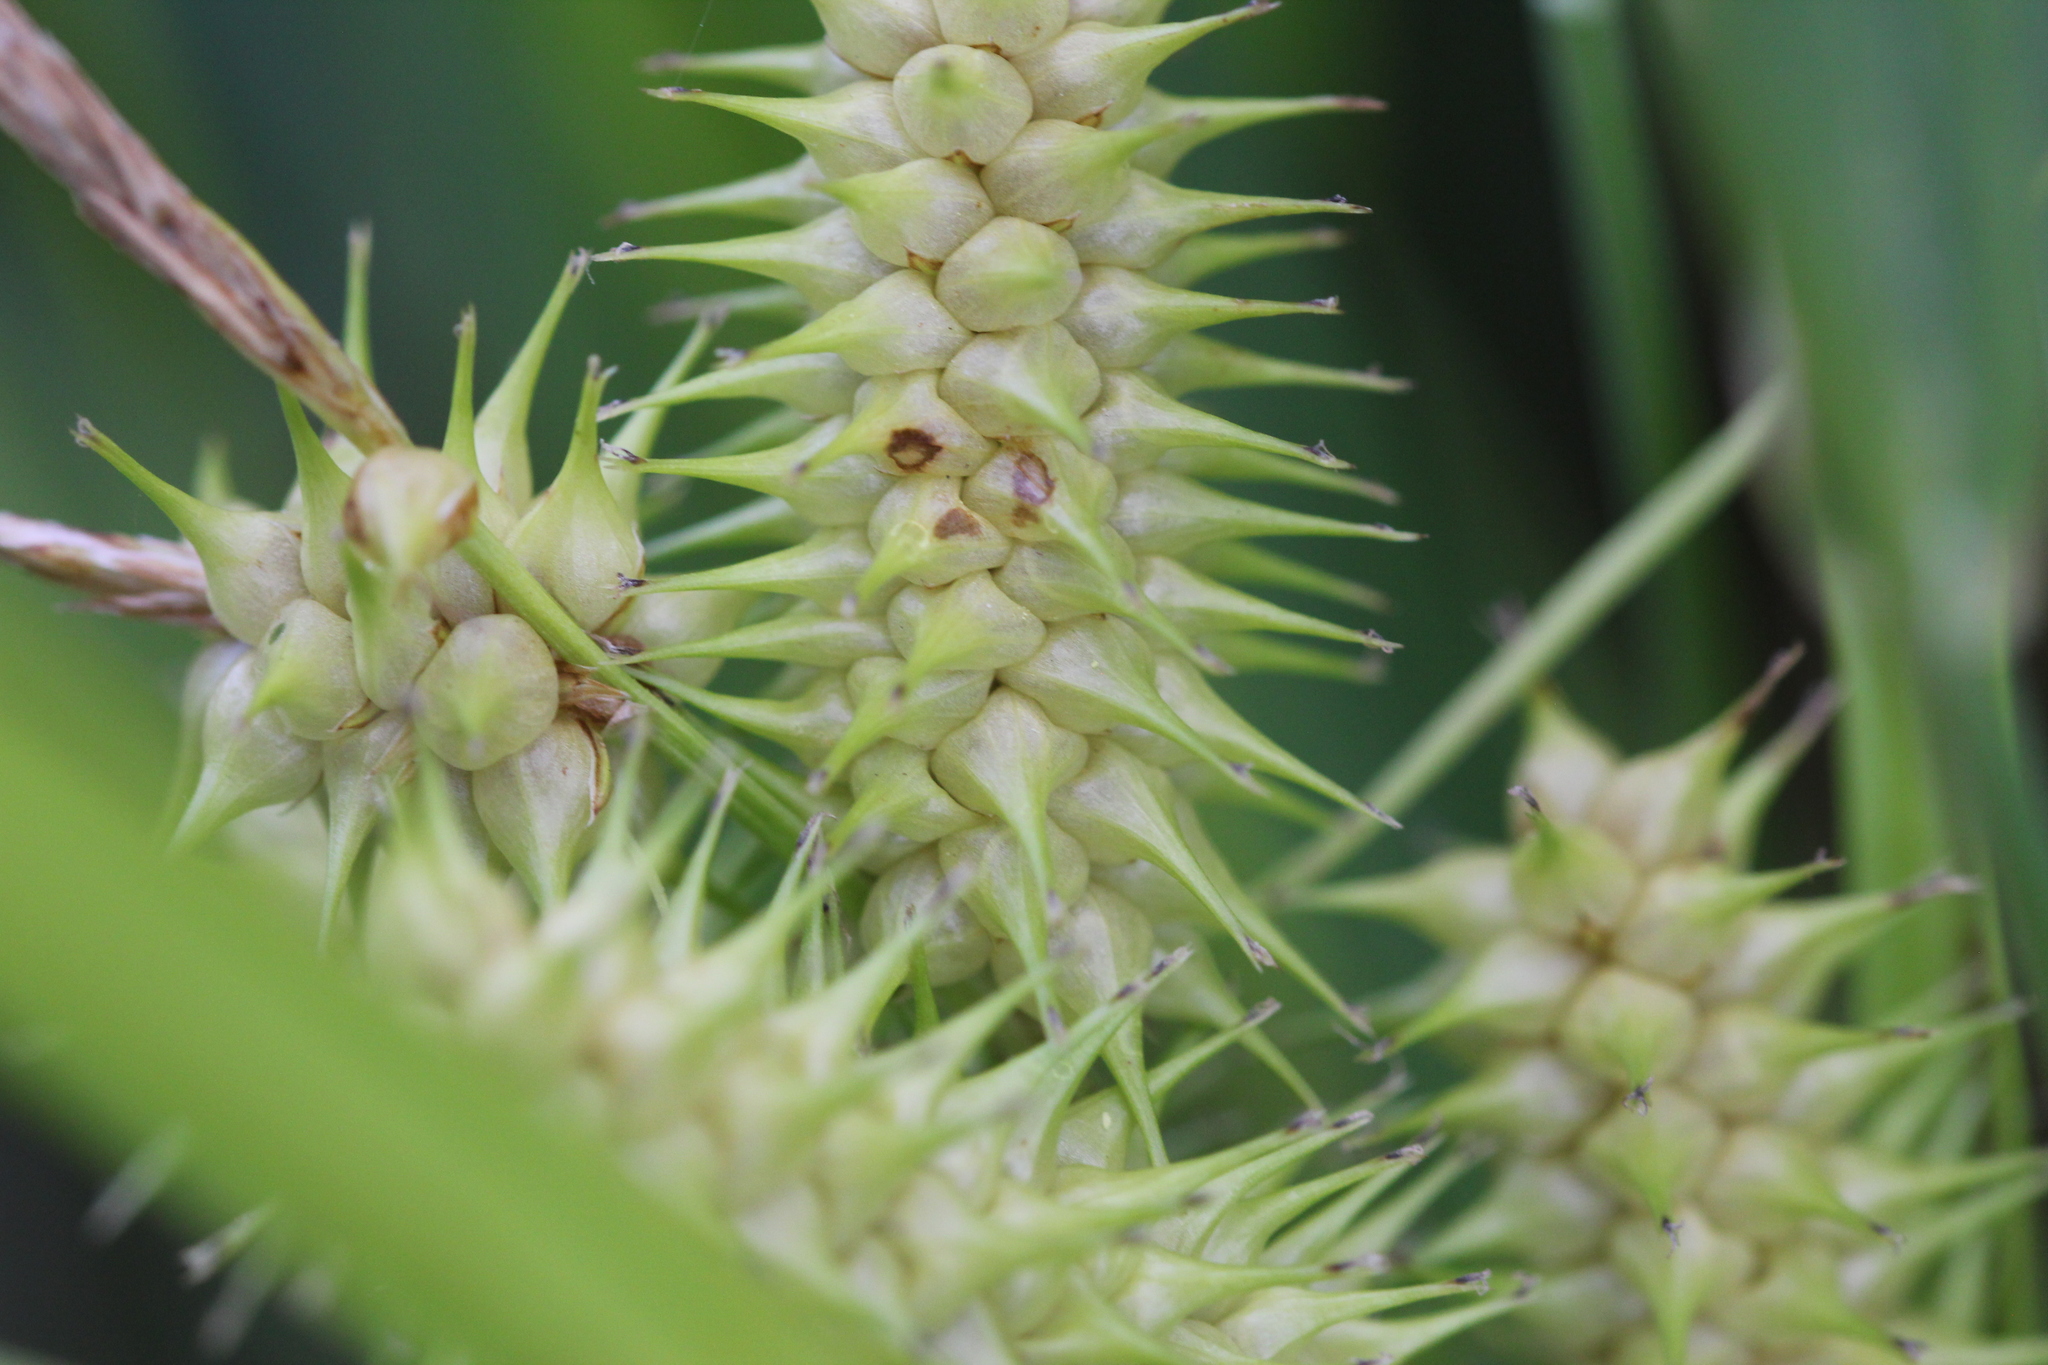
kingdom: Plantae
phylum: Tracheophyta
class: Liliopsida
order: Poales
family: Cyperaceae
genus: Carex
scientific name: Carex retrorsa
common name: Knot-sheath sedge
